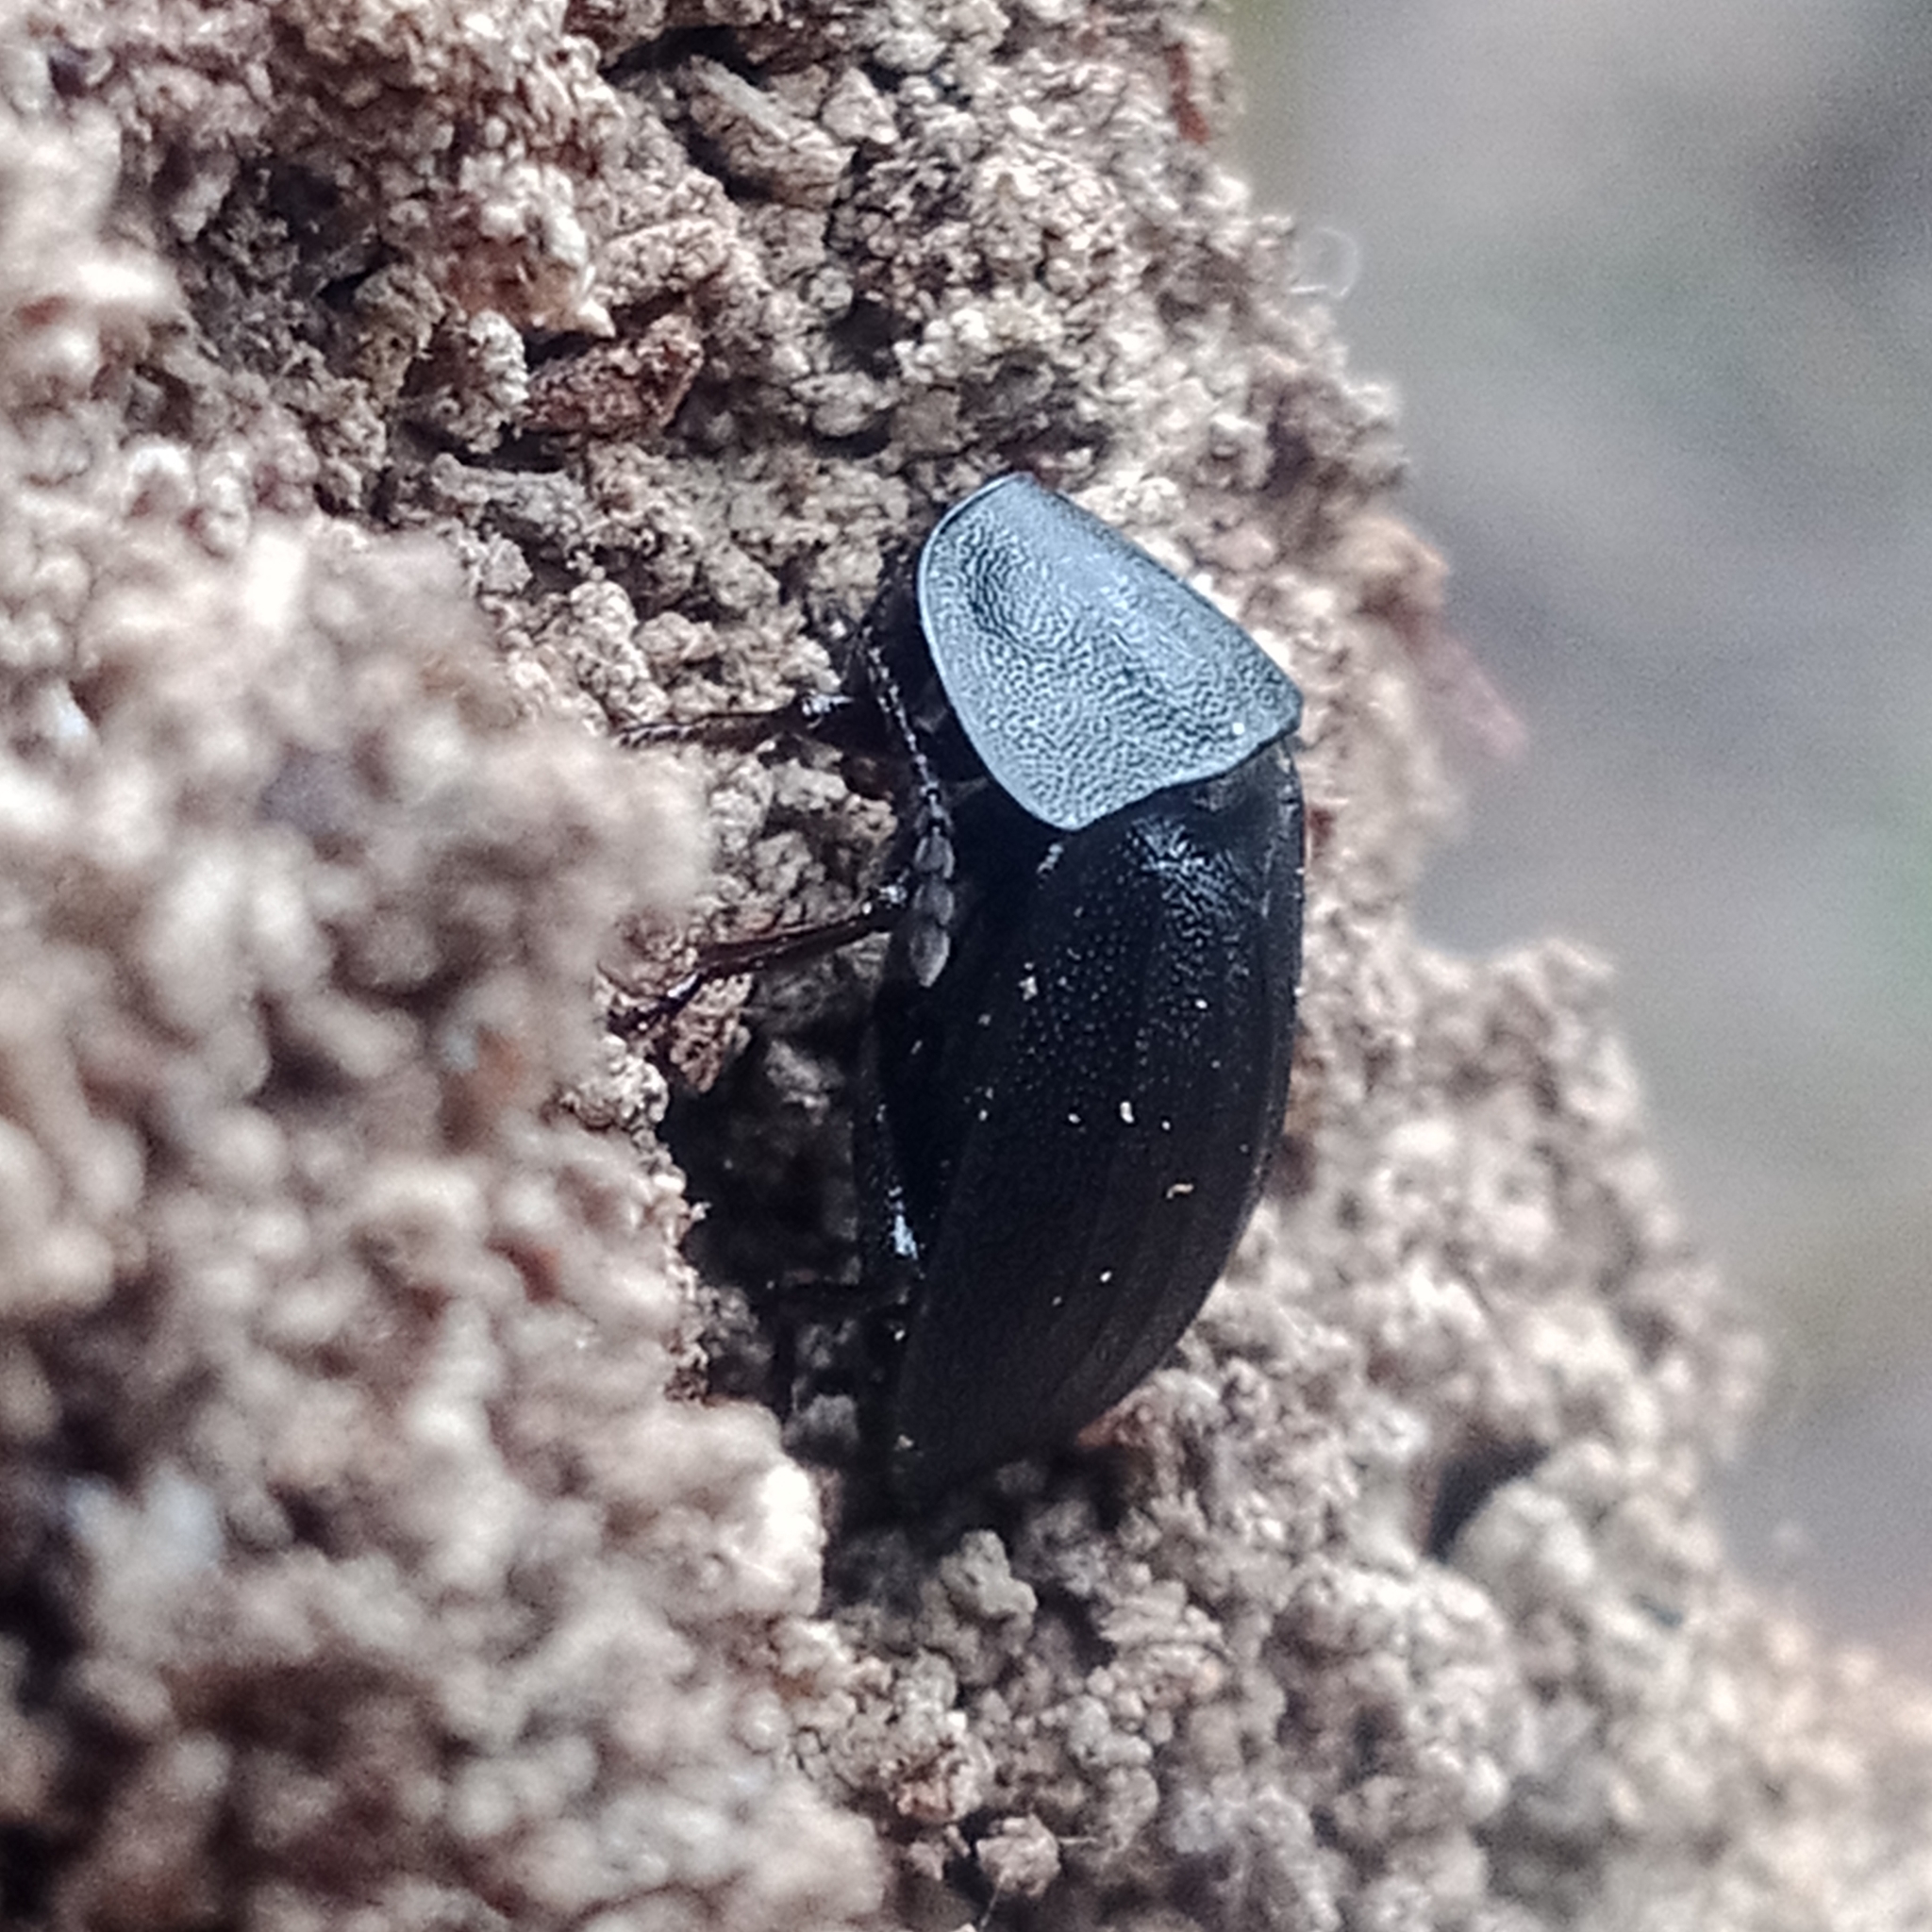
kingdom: Animalia
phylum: Arthropoda
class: Insecta
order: Coleoptera
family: Staphylinidae
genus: Silpha
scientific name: Silpha atrata
